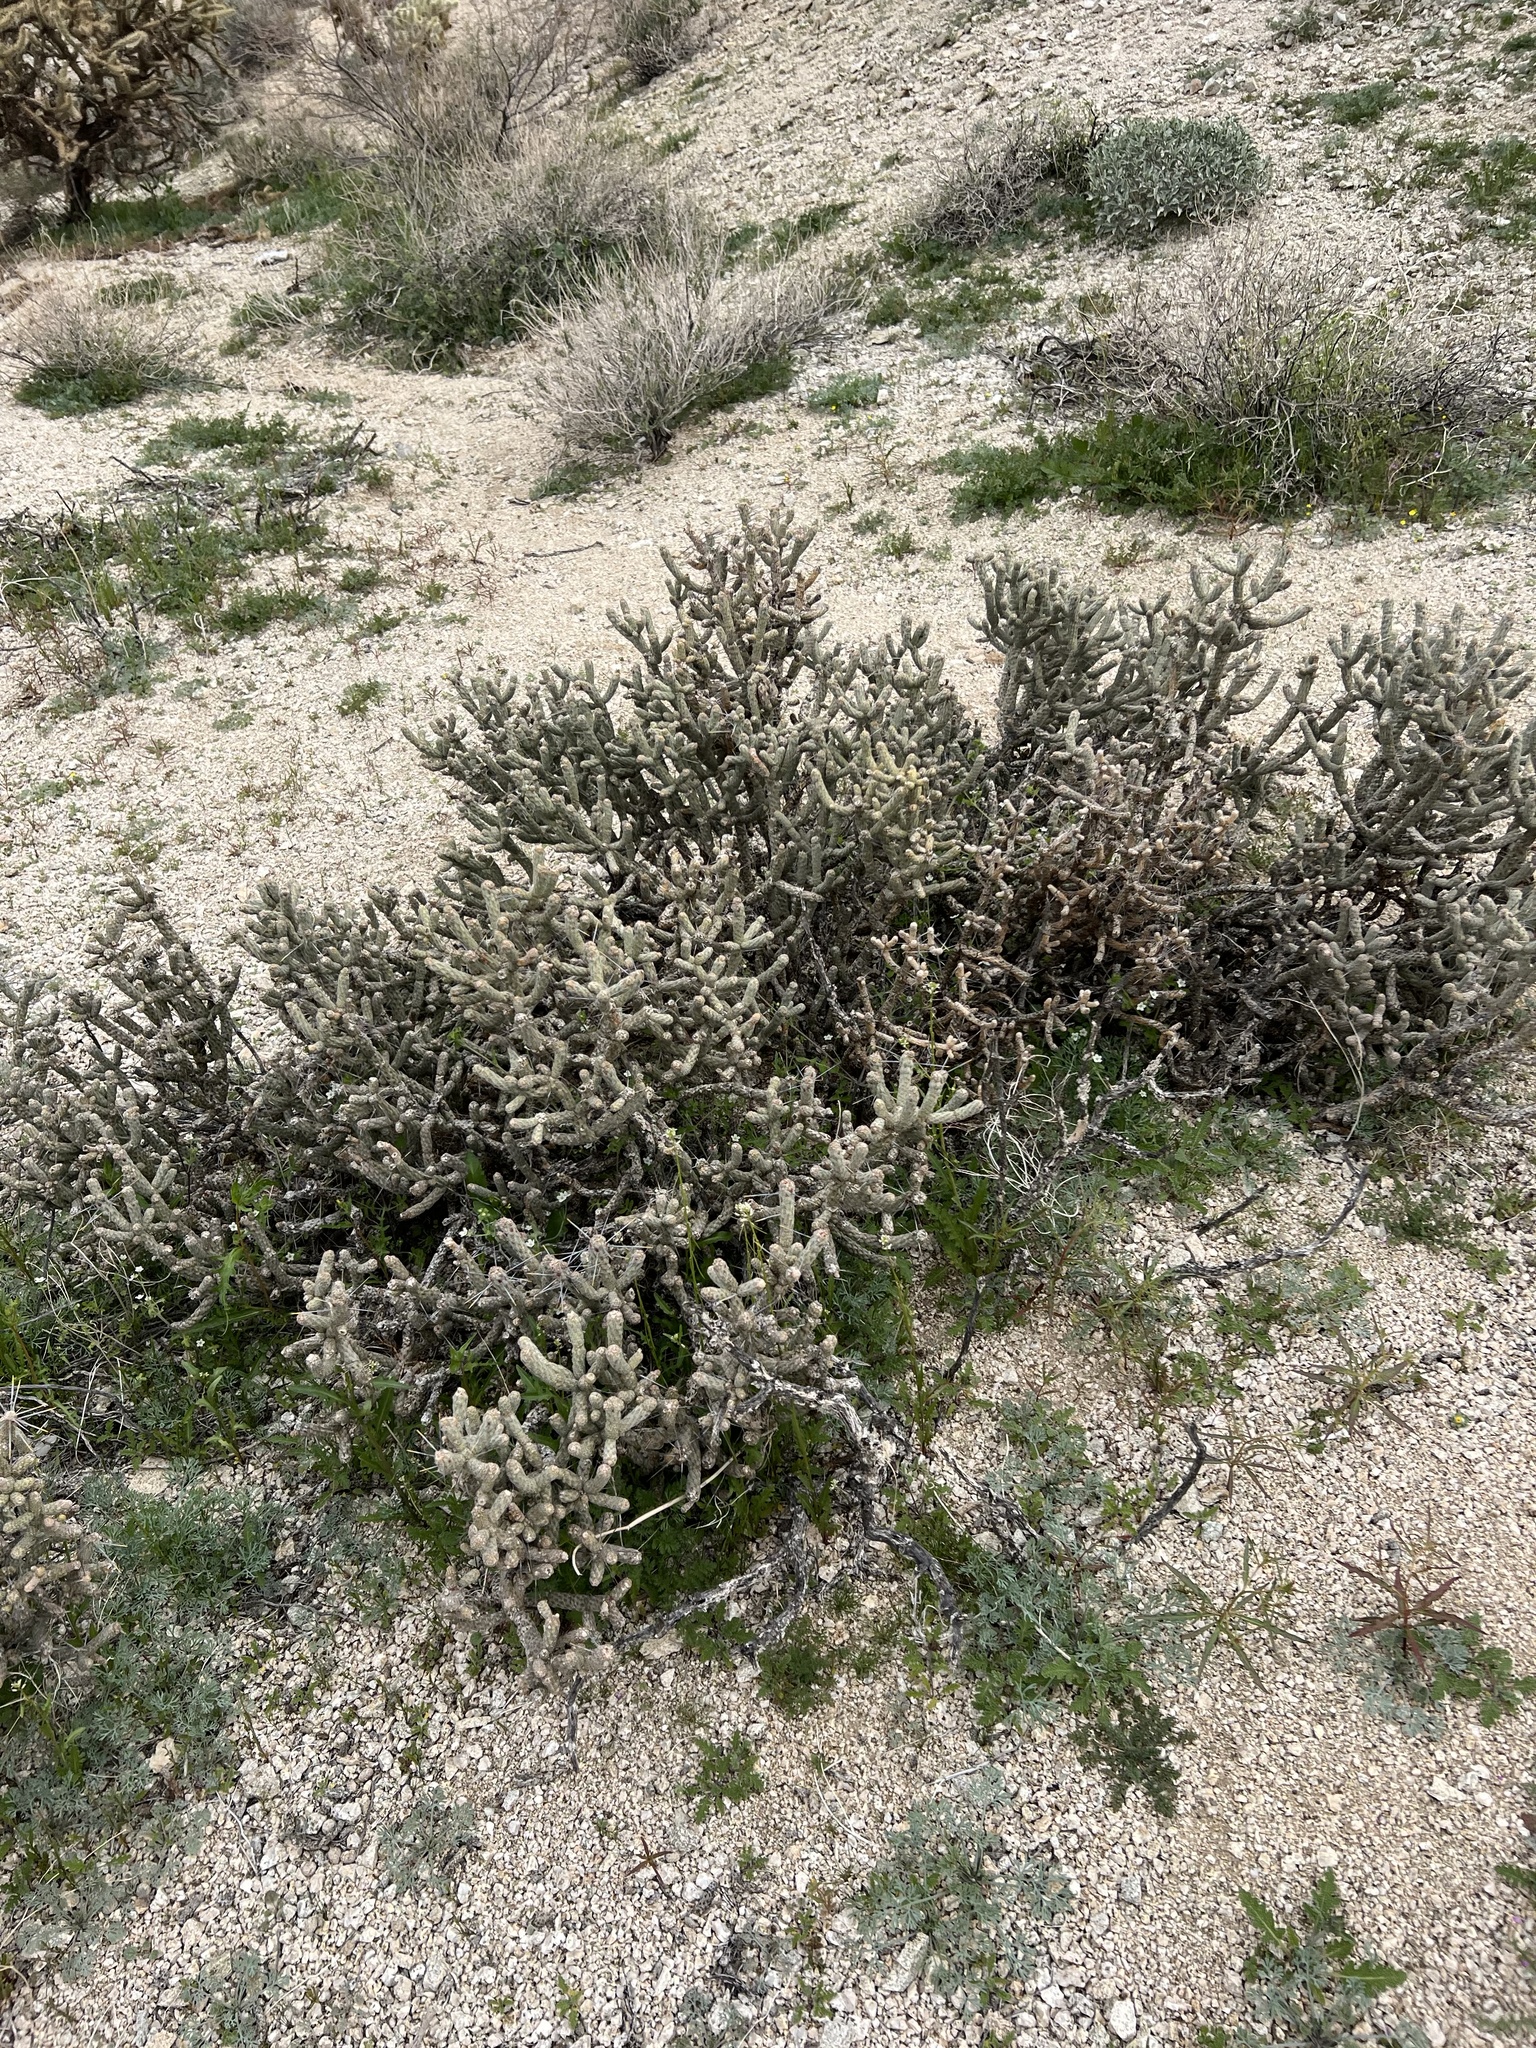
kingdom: Plantae
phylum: Tracheophyta
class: Magnoliopsida
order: Caryophyllales
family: Cactaceae
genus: Cylindropuntia
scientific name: Cylindropuntia ramosissima
